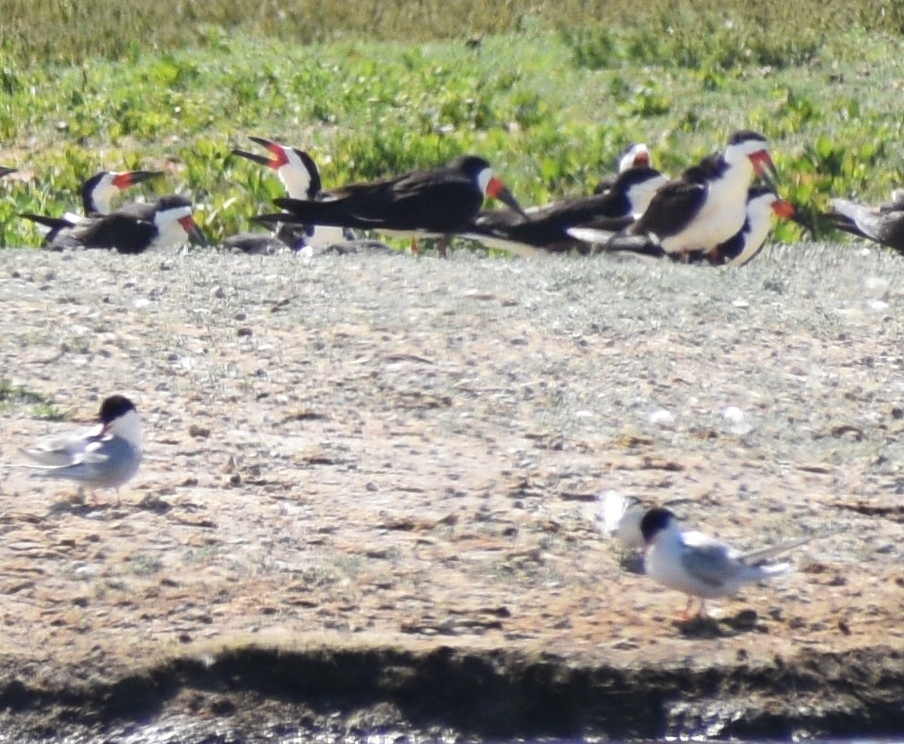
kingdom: Animalia
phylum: Chordata
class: Aves
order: Charadriiformes
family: Laridae
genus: Sterna
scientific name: Sterna forsteri
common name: Forster's tern
